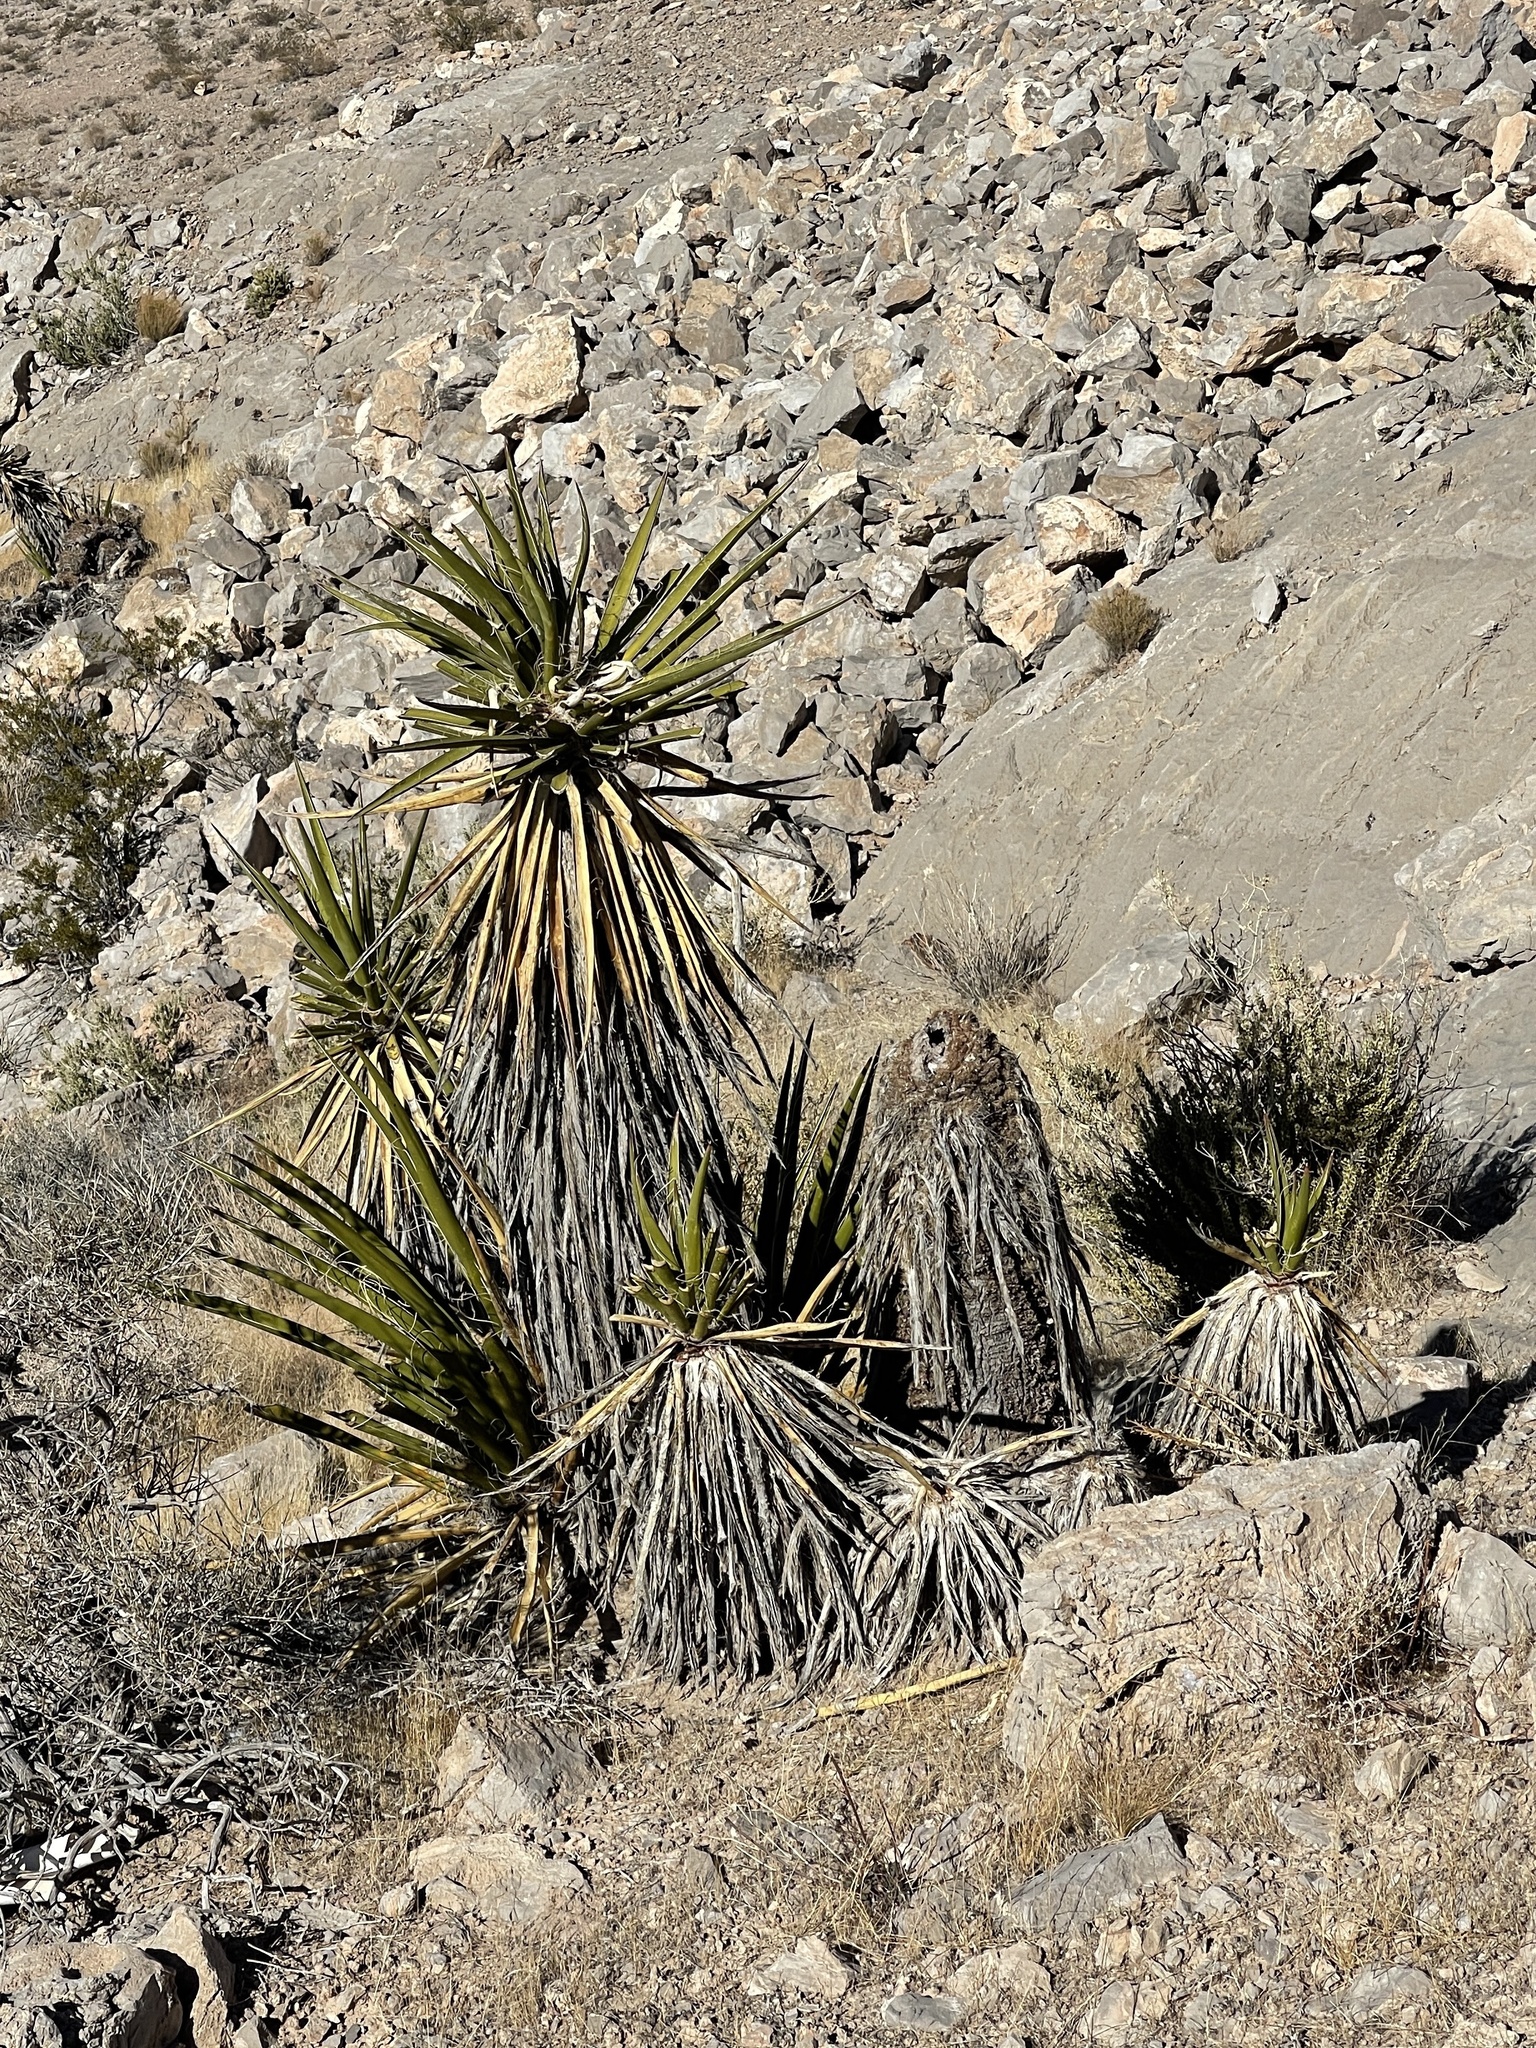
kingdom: Plantae
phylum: Tracheophyta
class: Liliopsida
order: Asparagales
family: Asparagaceae
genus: Yucca
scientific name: Yucca schidigera
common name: Mojave yucca
